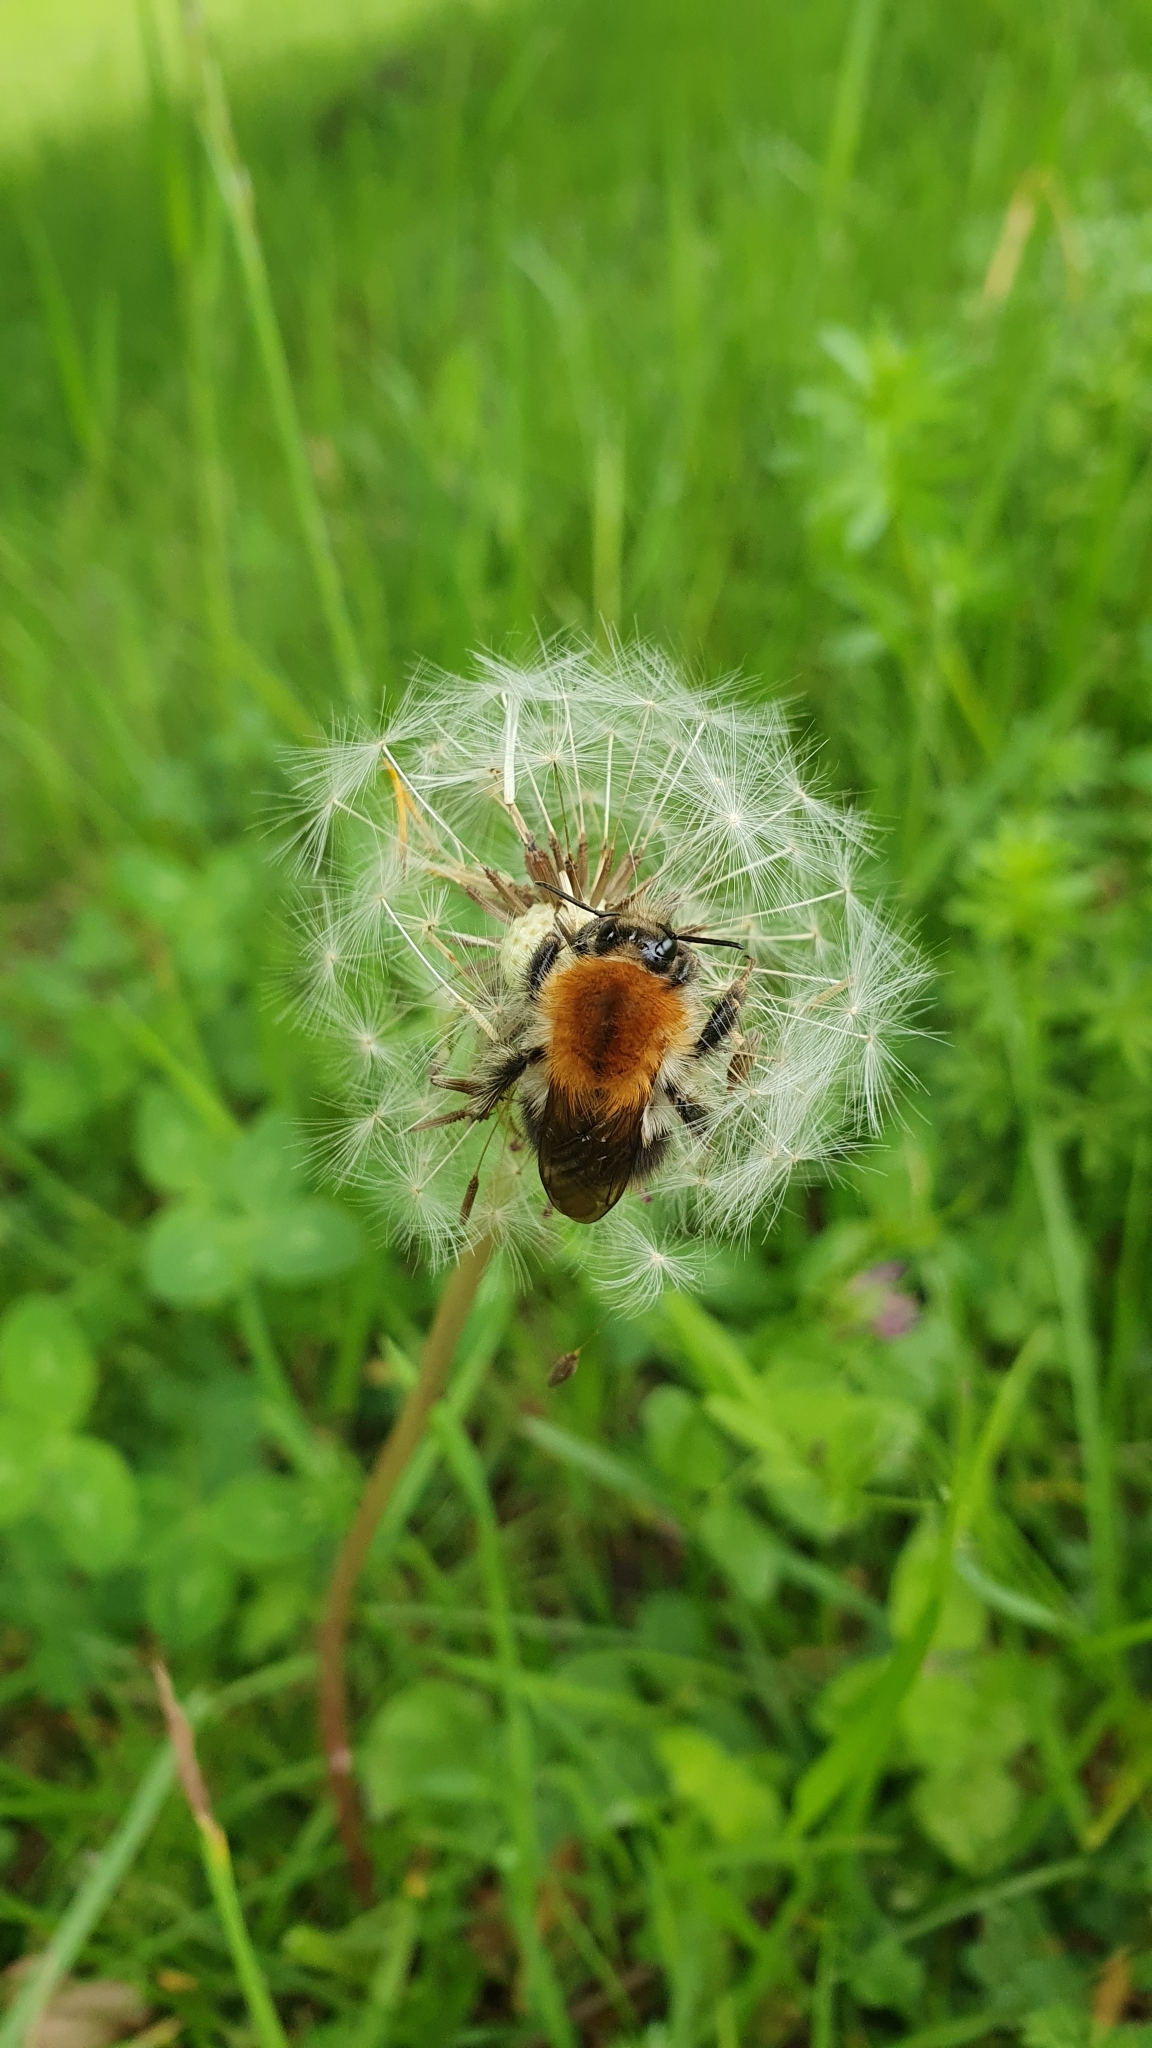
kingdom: Animalia
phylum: Arthropoda
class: Insecta
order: Hymenoptera
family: Apidae
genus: Bombus
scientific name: Bombus pascuorum
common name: Common carder bee
